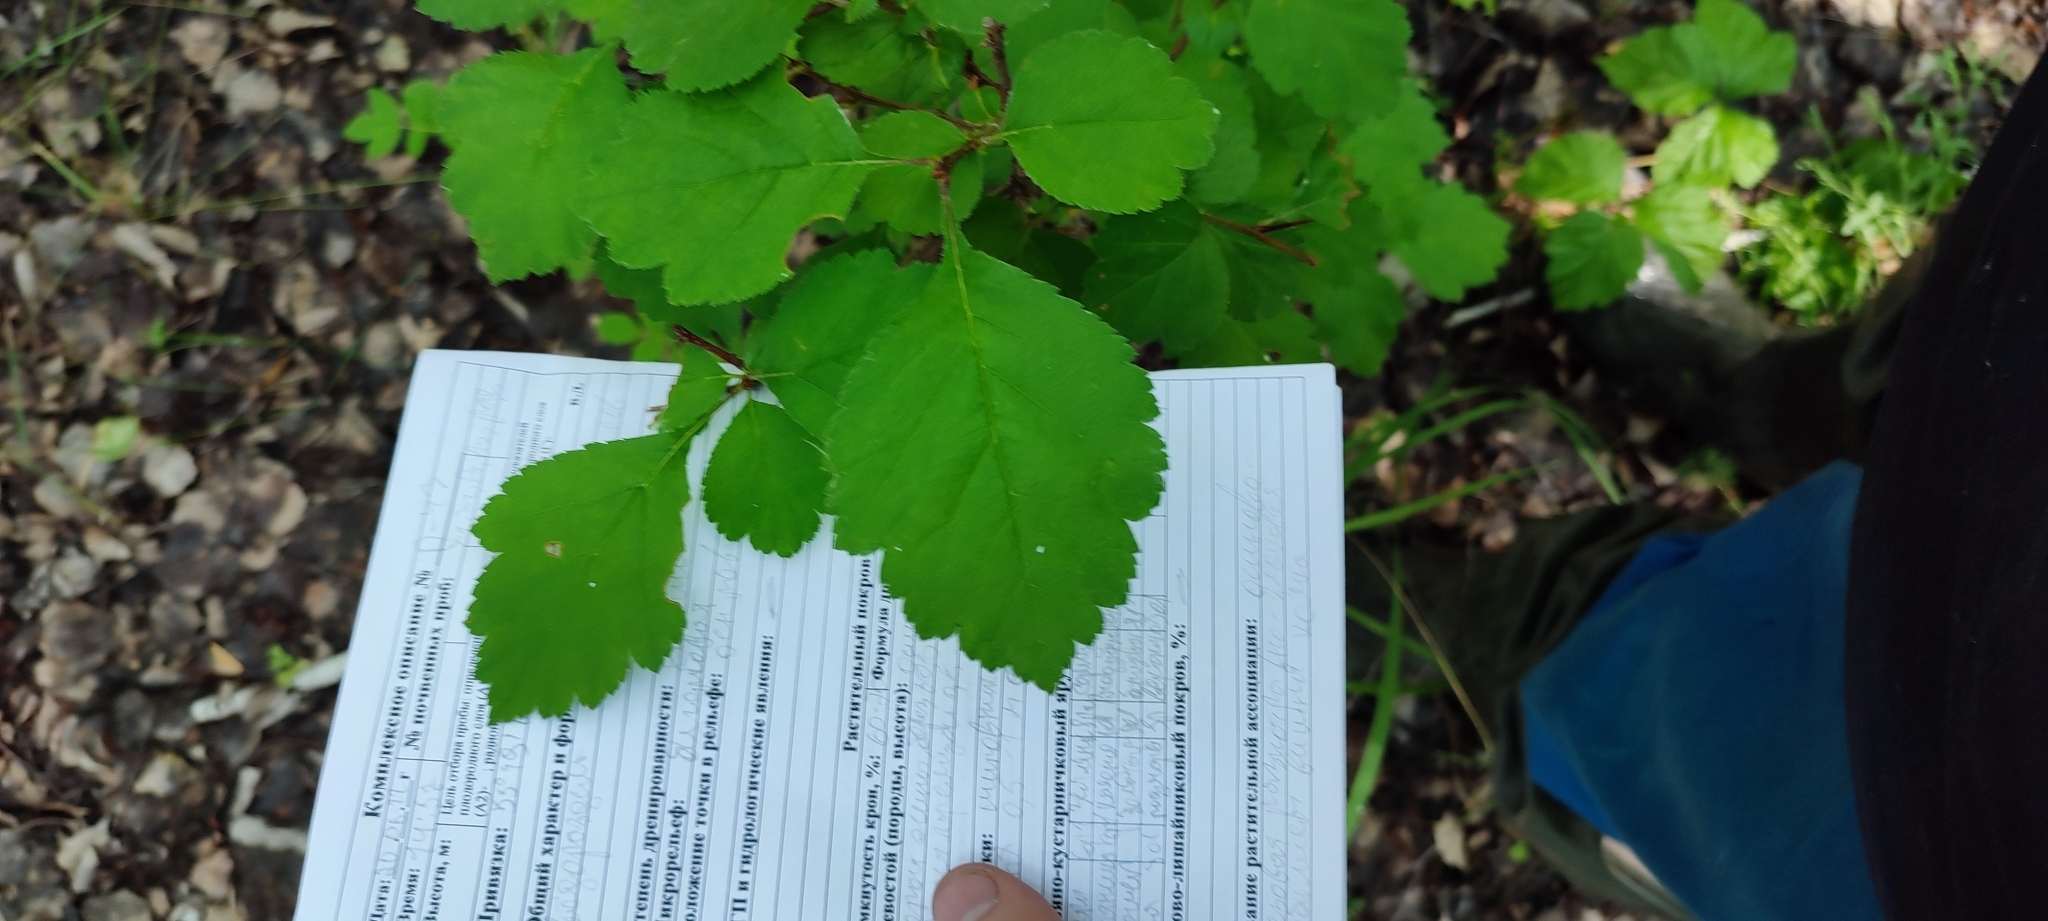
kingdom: Plantae
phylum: Tracheophyta
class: Magnoliopsida
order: Rosales
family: Rosaceae
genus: Crataegus
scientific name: Crataegus sanguinea
